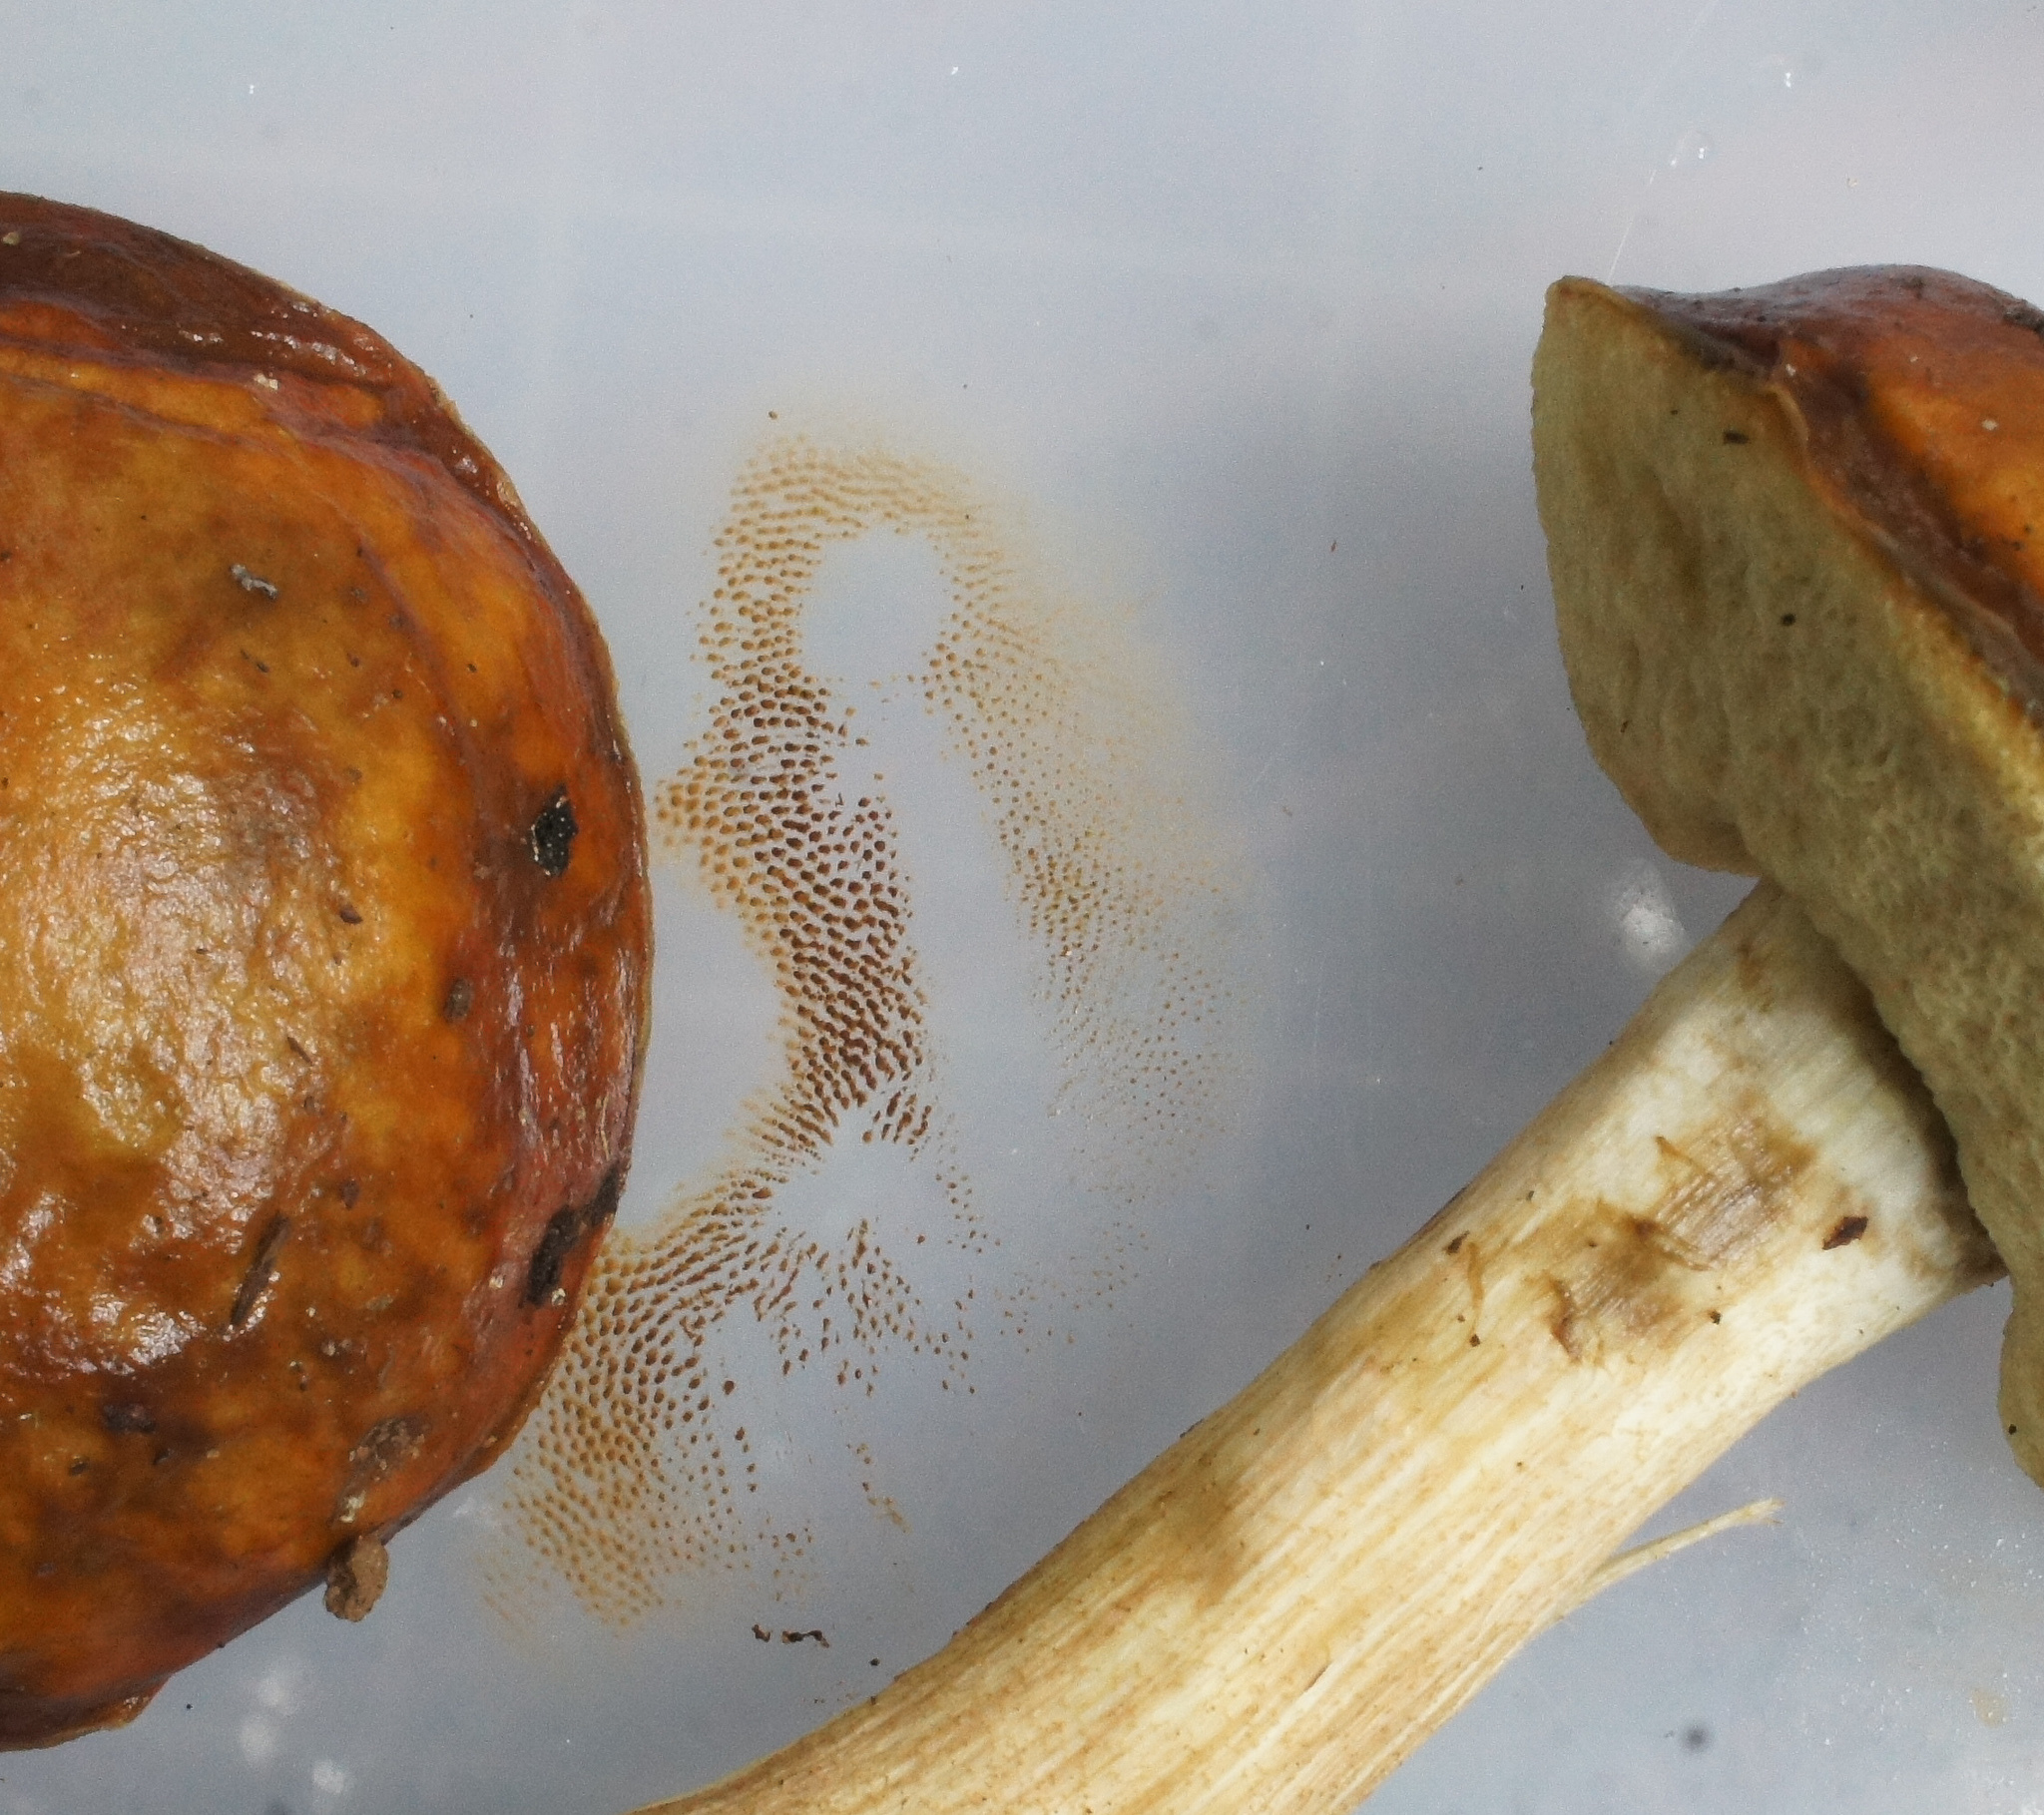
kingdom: Fungi
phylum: Basidiomycota
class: Agaricomycetes
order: Boletales
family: Boletaceae
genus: Leccinum
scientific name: Leccinum longicurvipes
